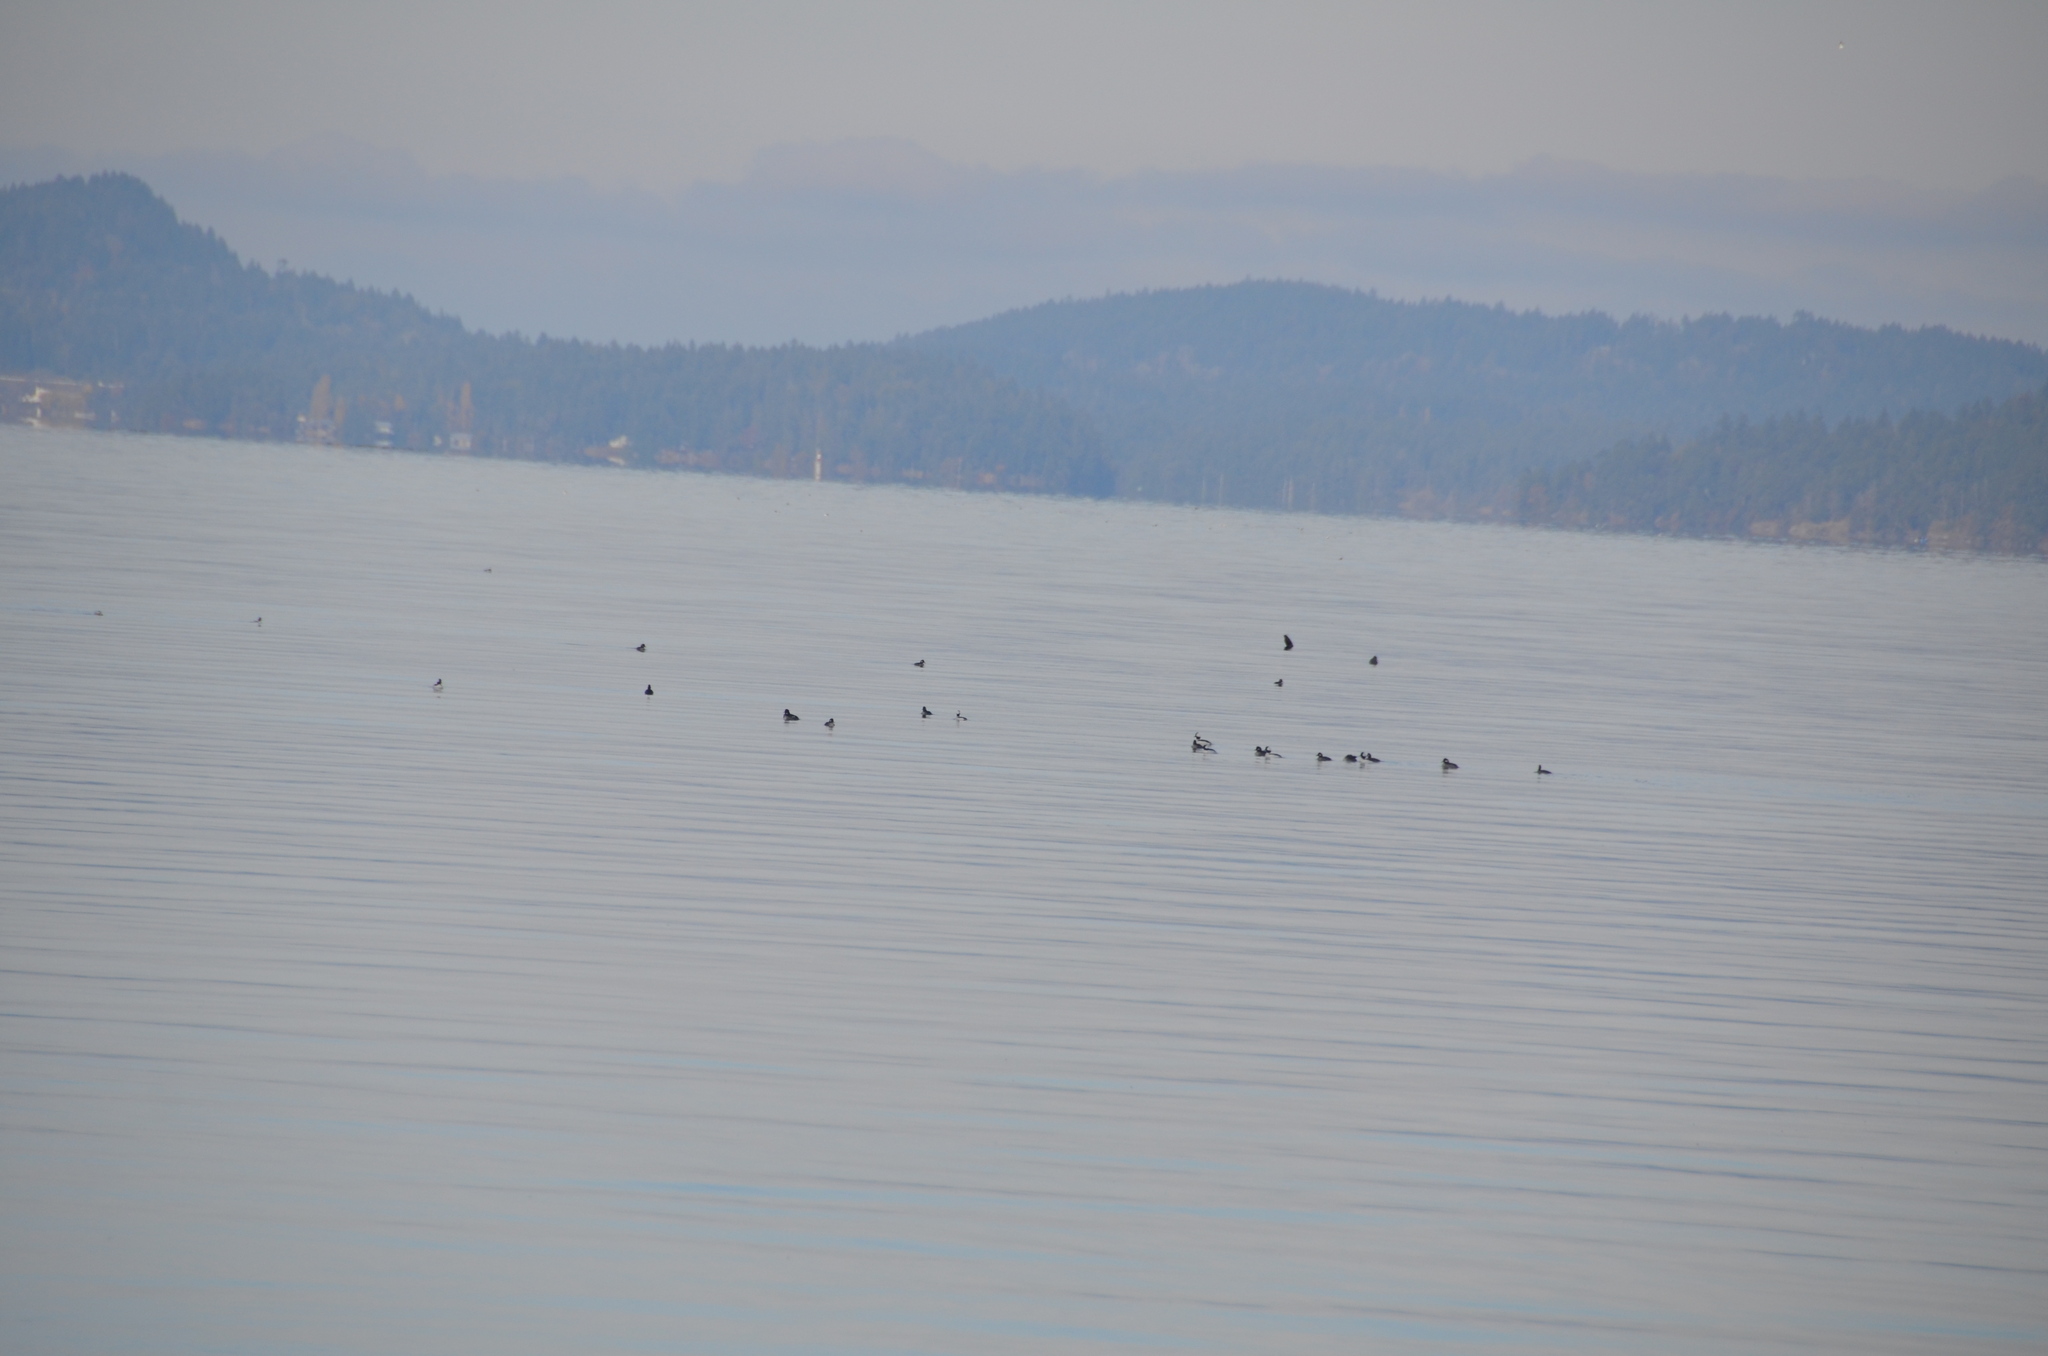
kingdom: Animalia
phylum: Chordata
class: Aves
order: Anseriformes
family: Anatidae
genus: Bucephala
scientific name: Bucephala albeola
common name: Bufflehead
